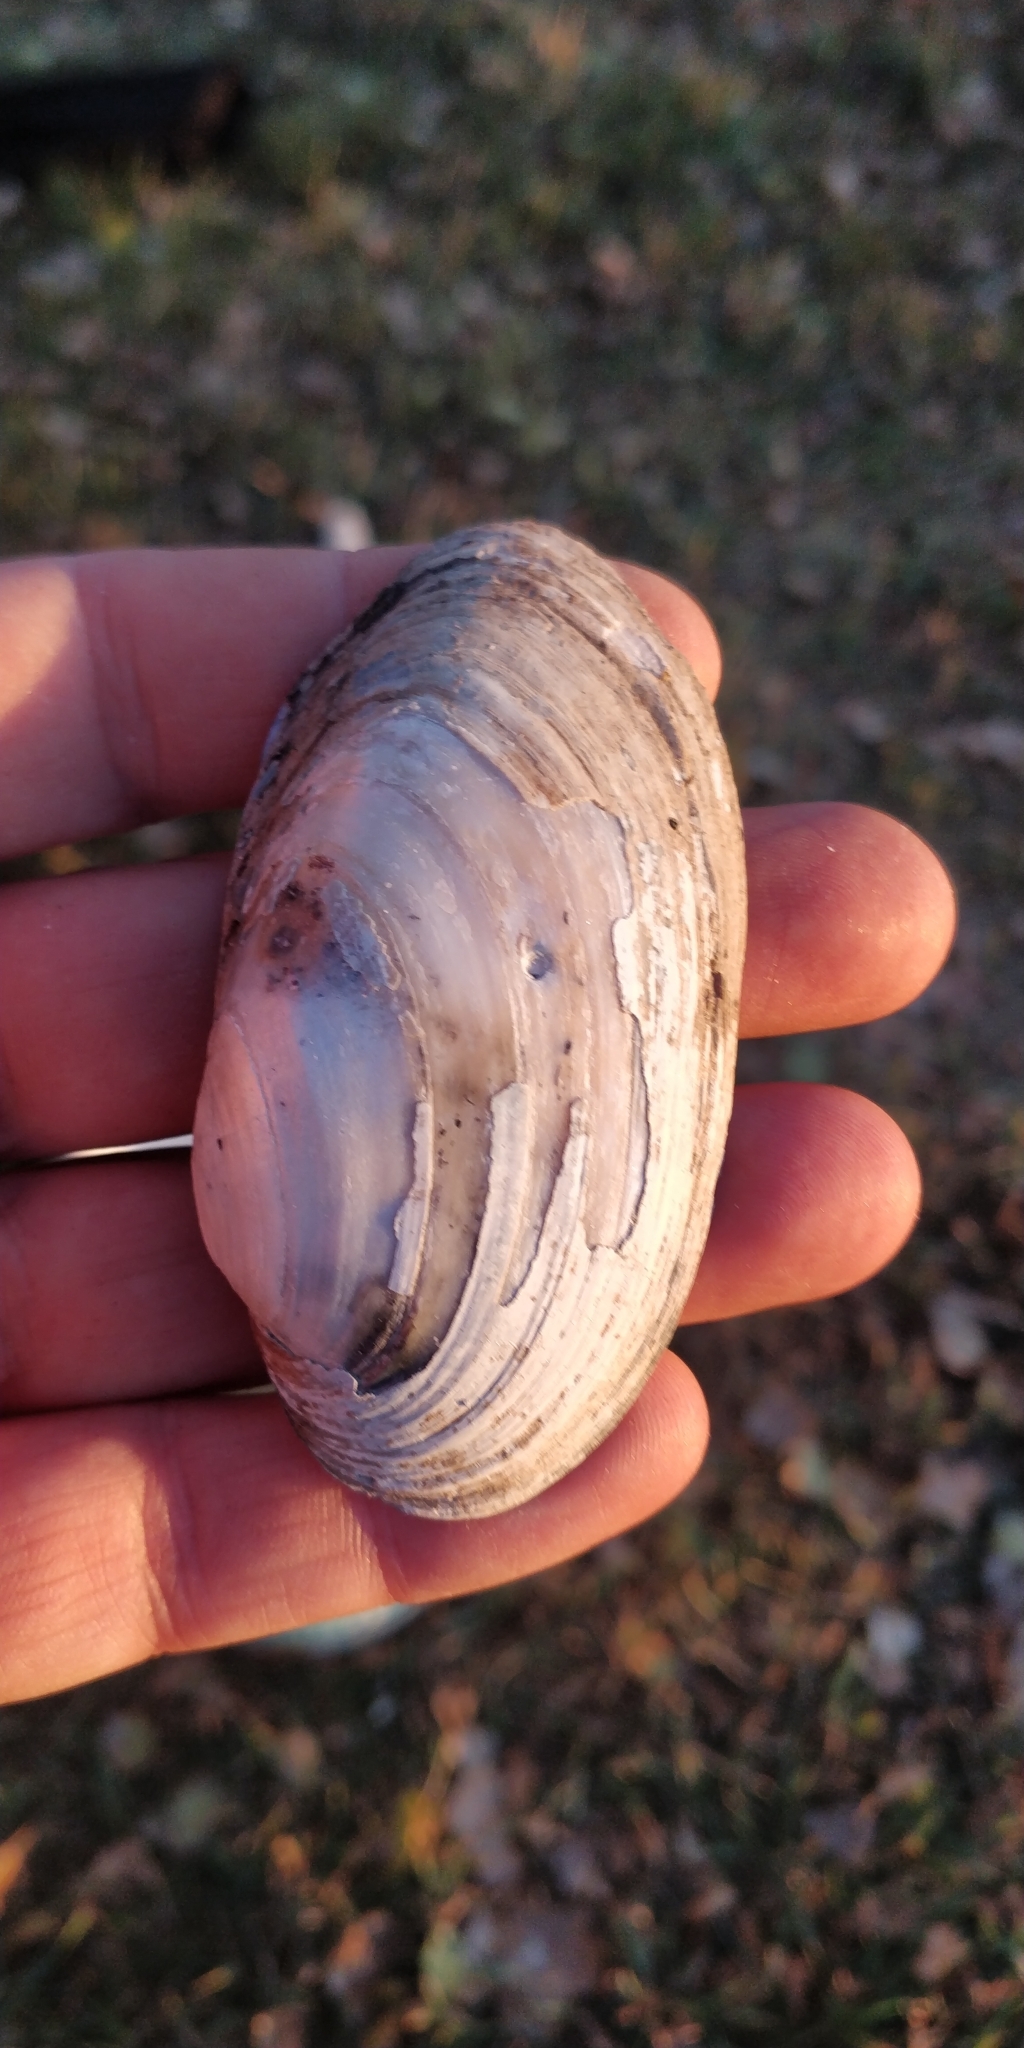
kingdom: Animalia
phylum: Mollusca
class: Bivalvia
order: Unionida
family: Unionidae
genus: Lampsilis
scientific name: Lampsilis siliquoidea
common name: Fatmucket
